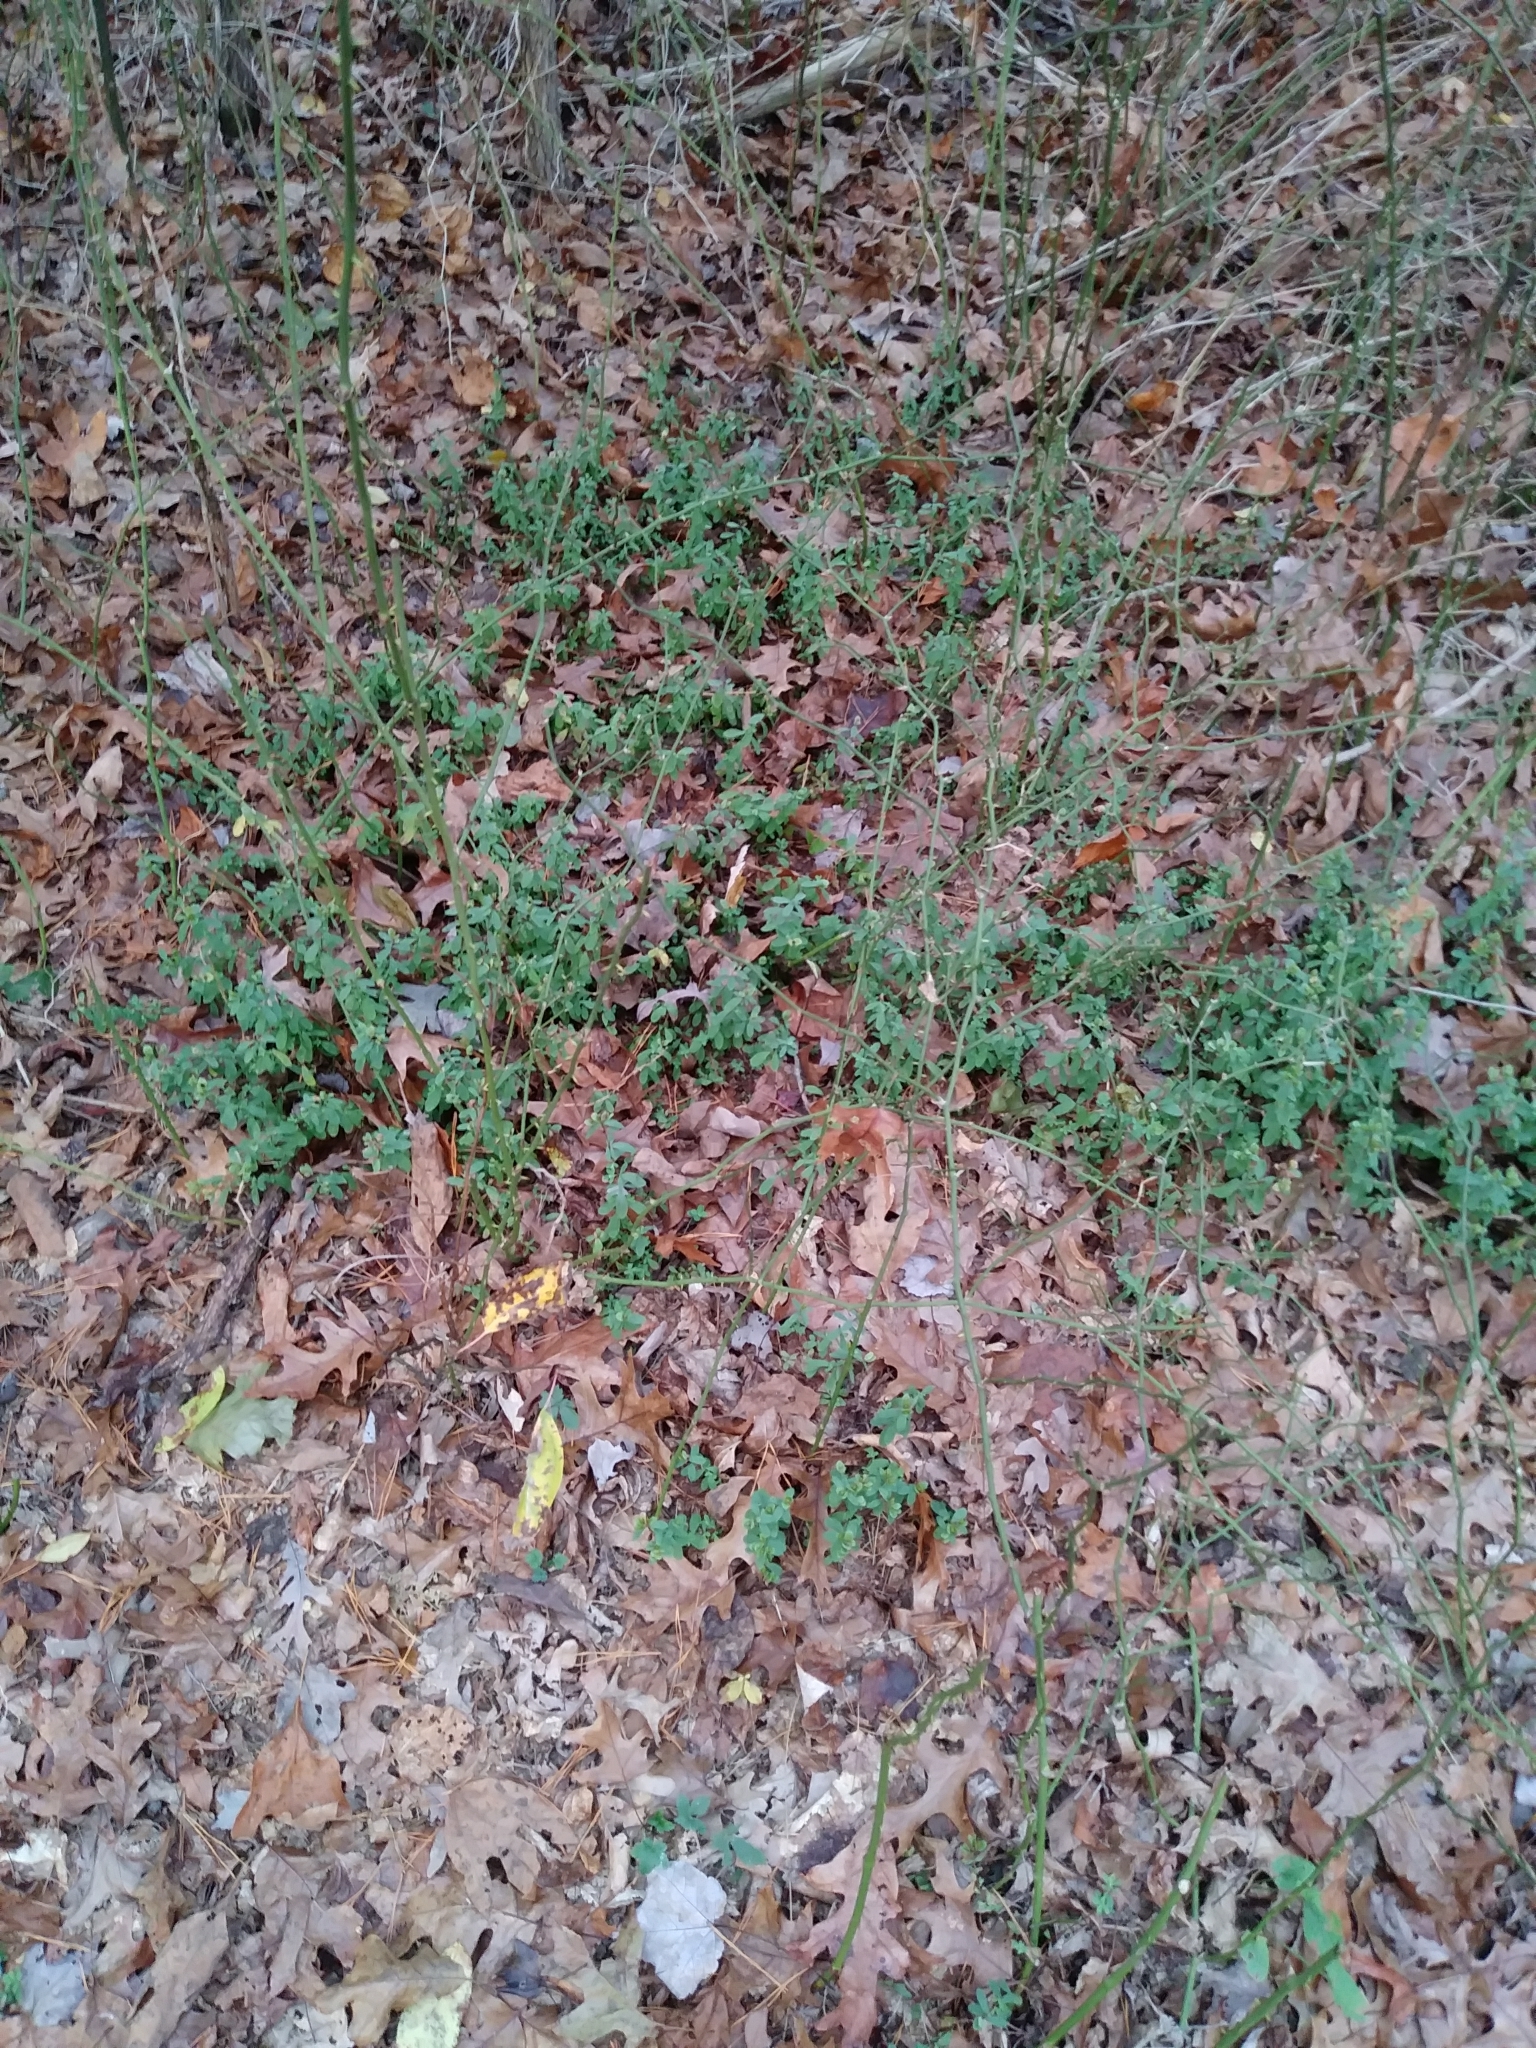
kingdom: Plantae
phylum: Tracheophyta
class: Magnoliopsida
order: Malpighiales
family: Hypericaceae
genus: Hypericum
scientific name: Hypericum hypericoides
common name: St. andrew's cross
